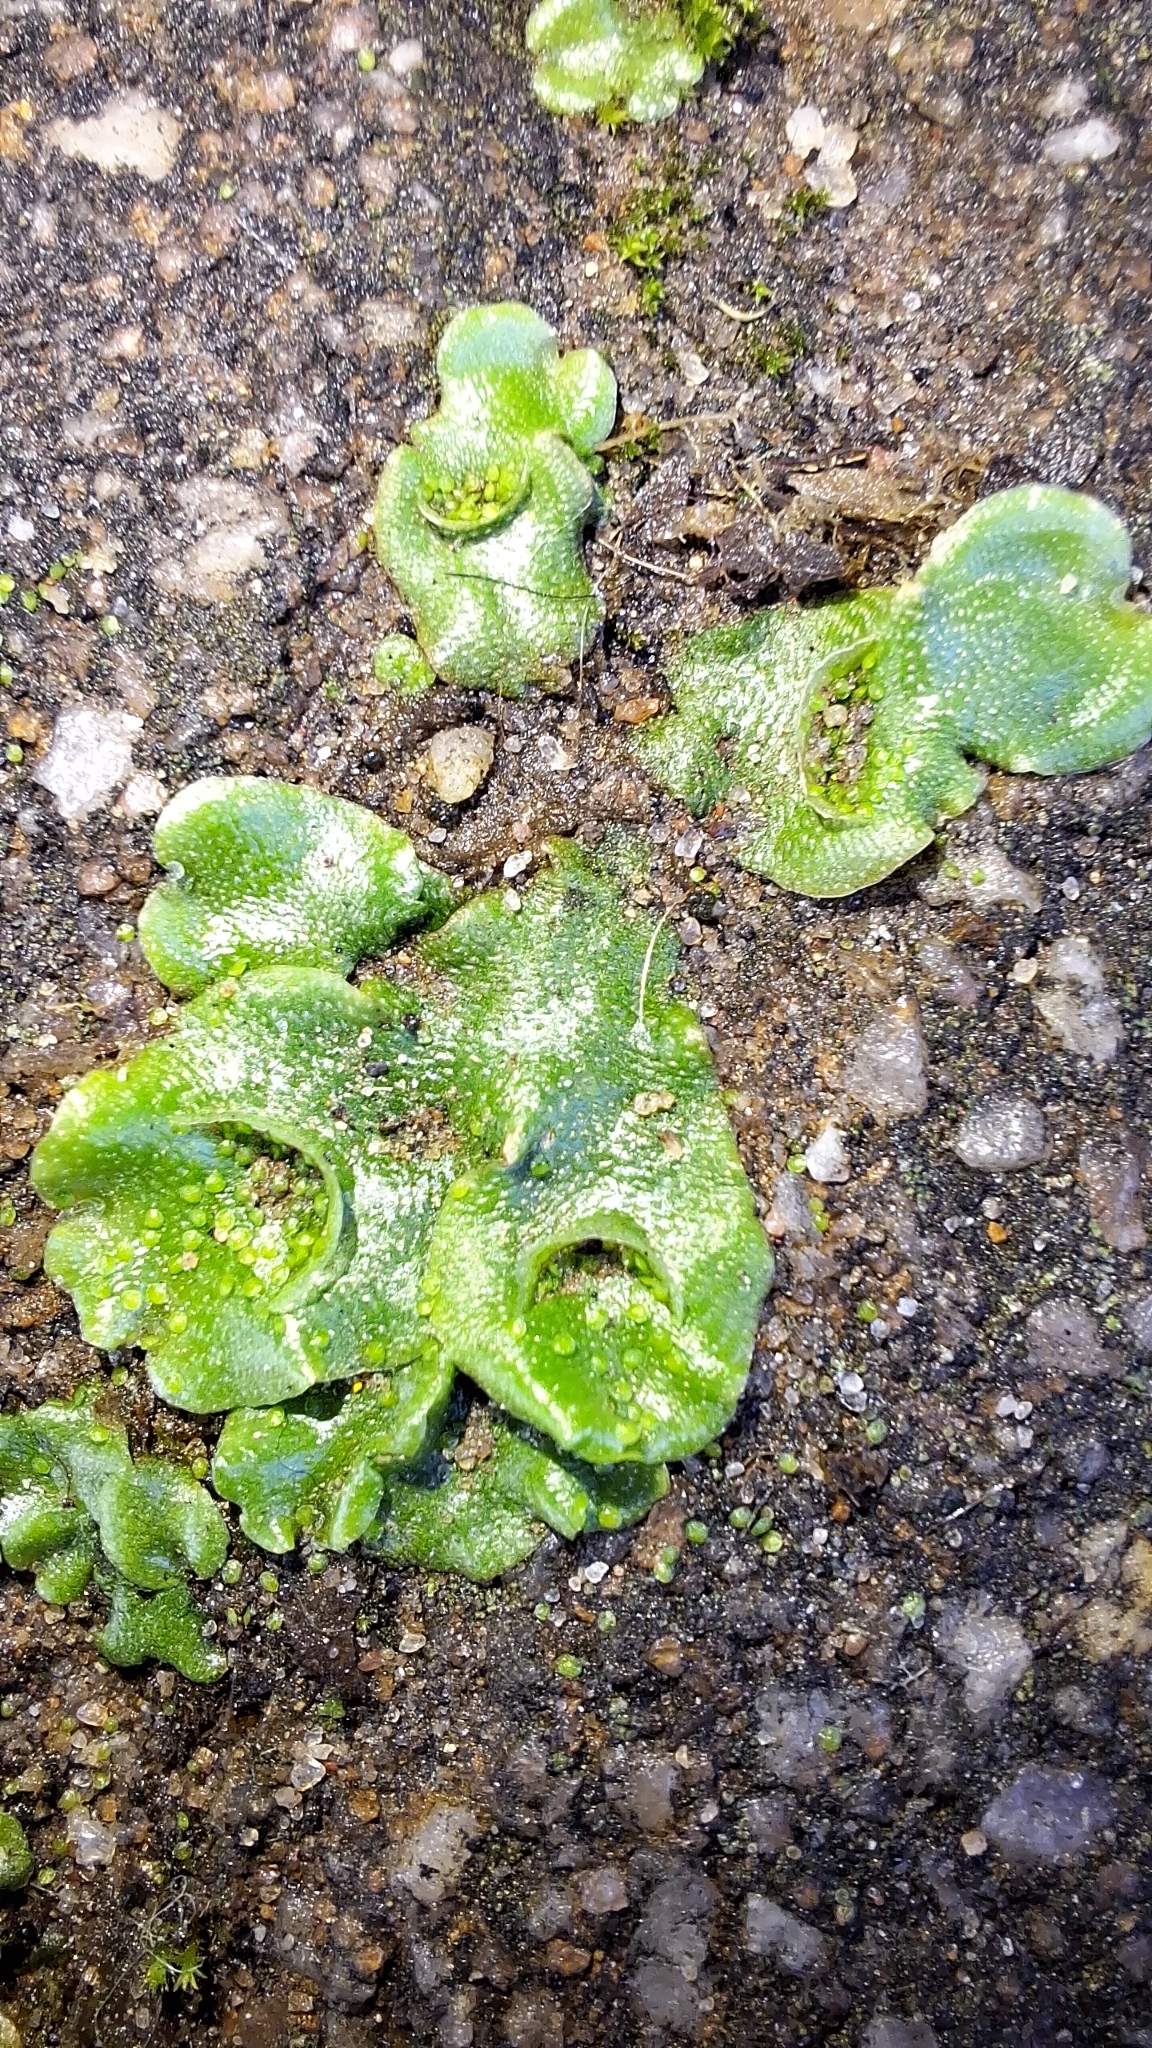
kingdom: Plantae
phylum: Marchantiophyta
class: Marchantiopsida
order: Lunulariales
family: Lunulariaceae
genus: Lunularia
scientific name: Lunularia cruciata
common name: Crescent-cup liverwort
